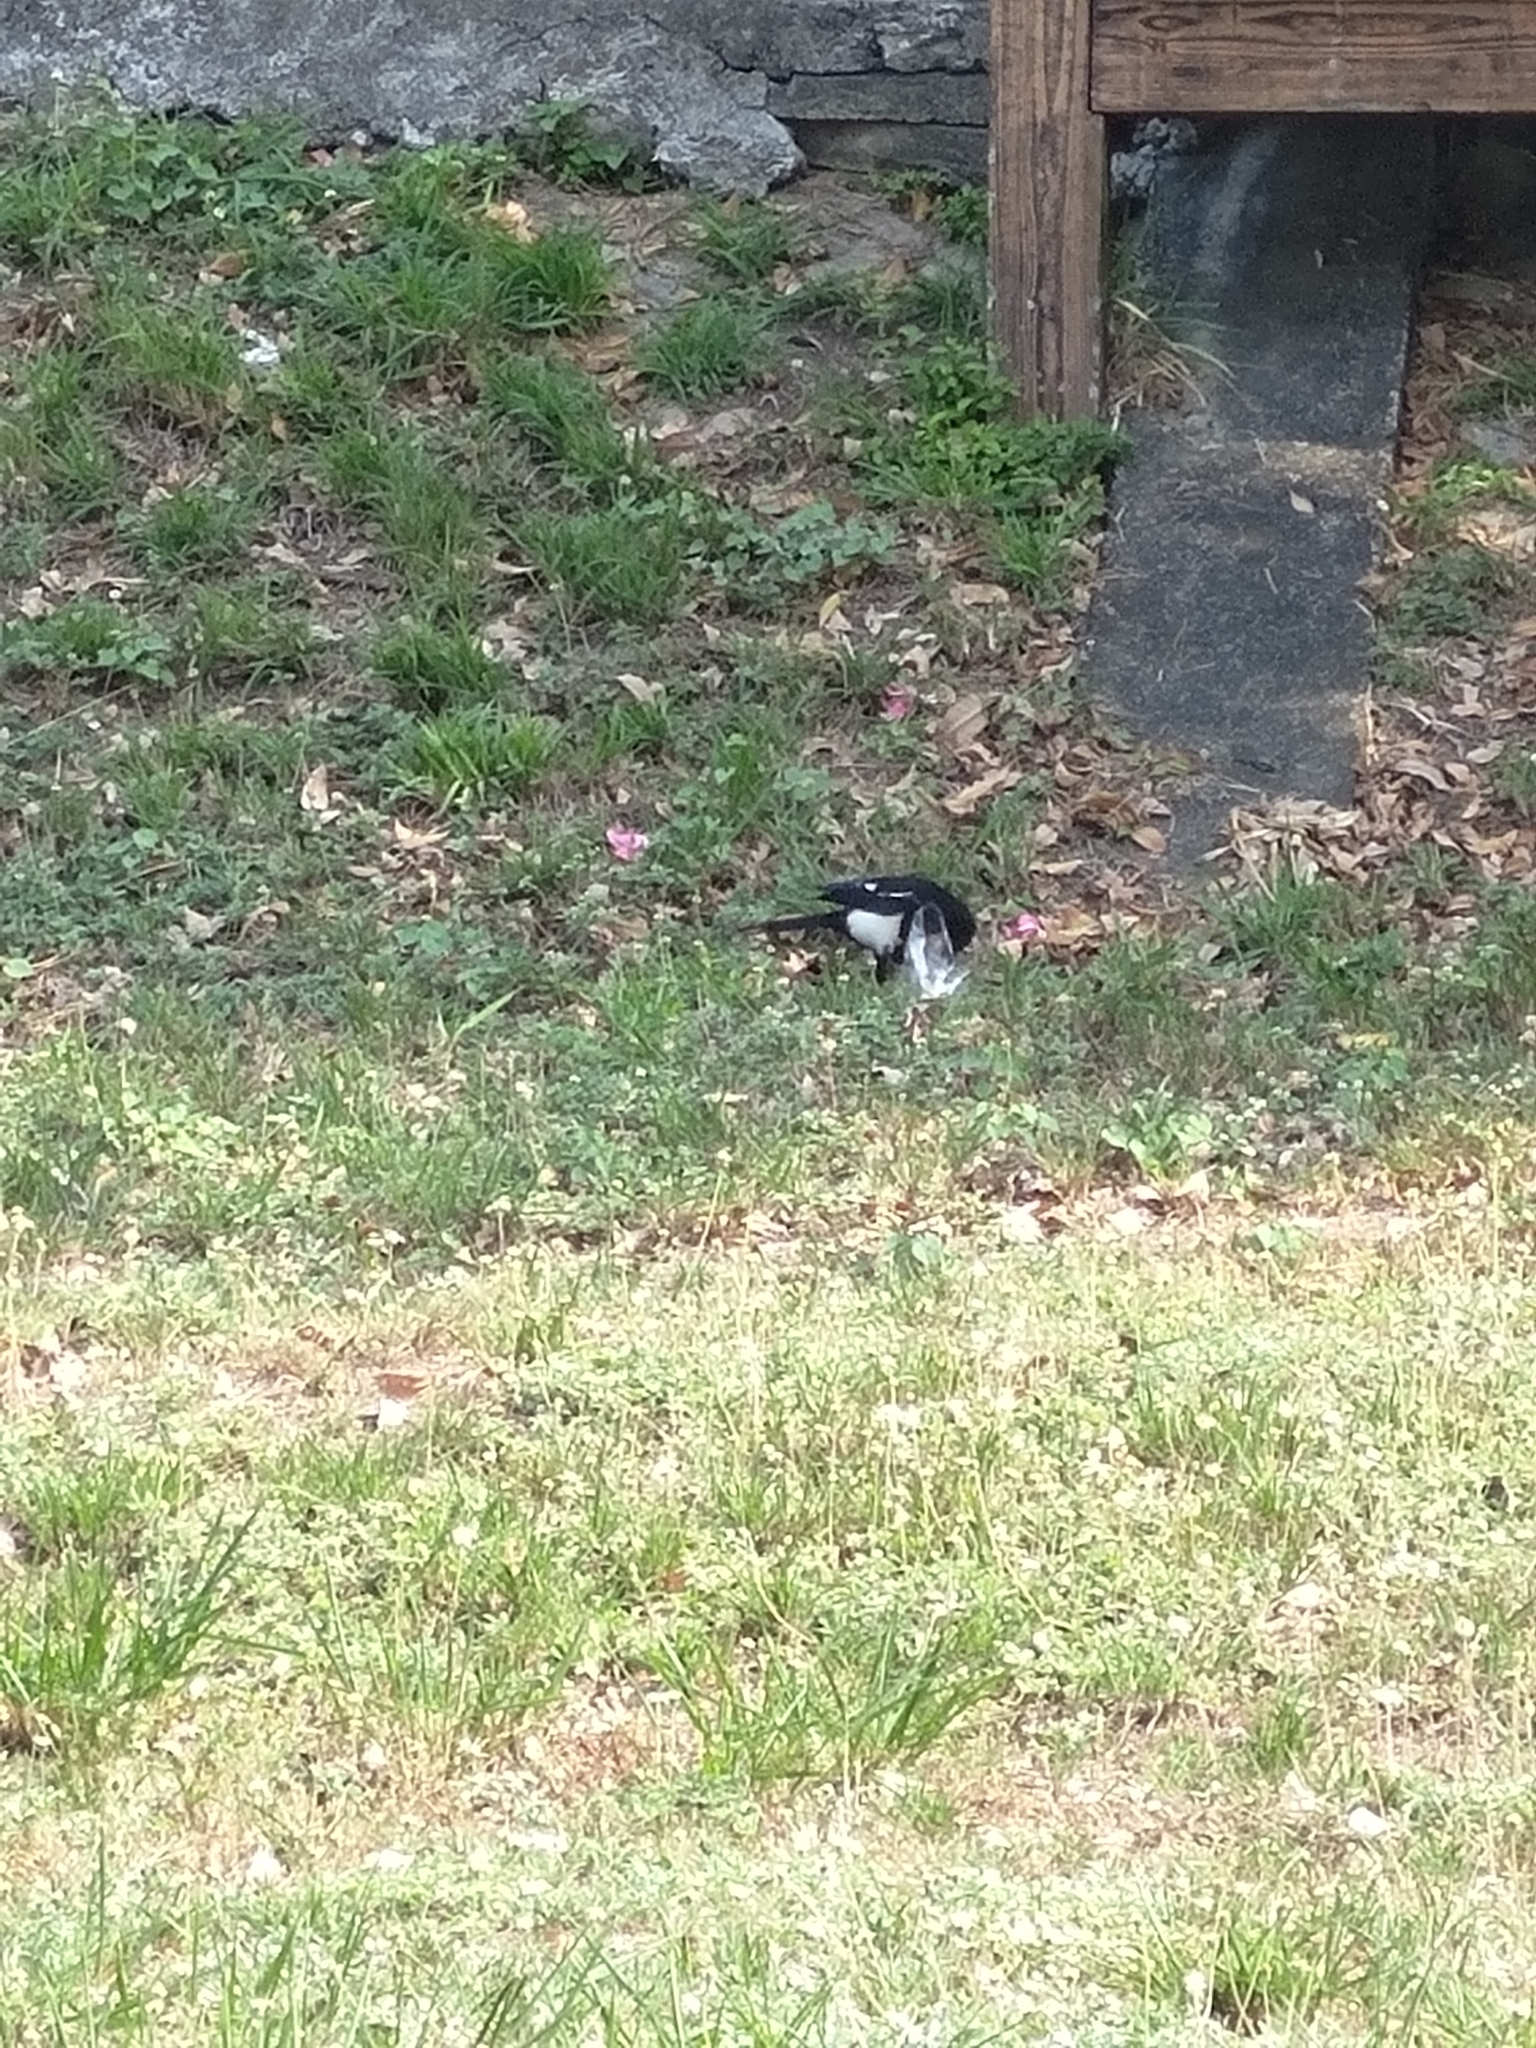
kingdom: Animalia
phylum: Chordata
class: Aves
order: Passeriformes
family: Corvidae
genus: Pica
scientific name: Pica serica
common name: Oriental magpie
